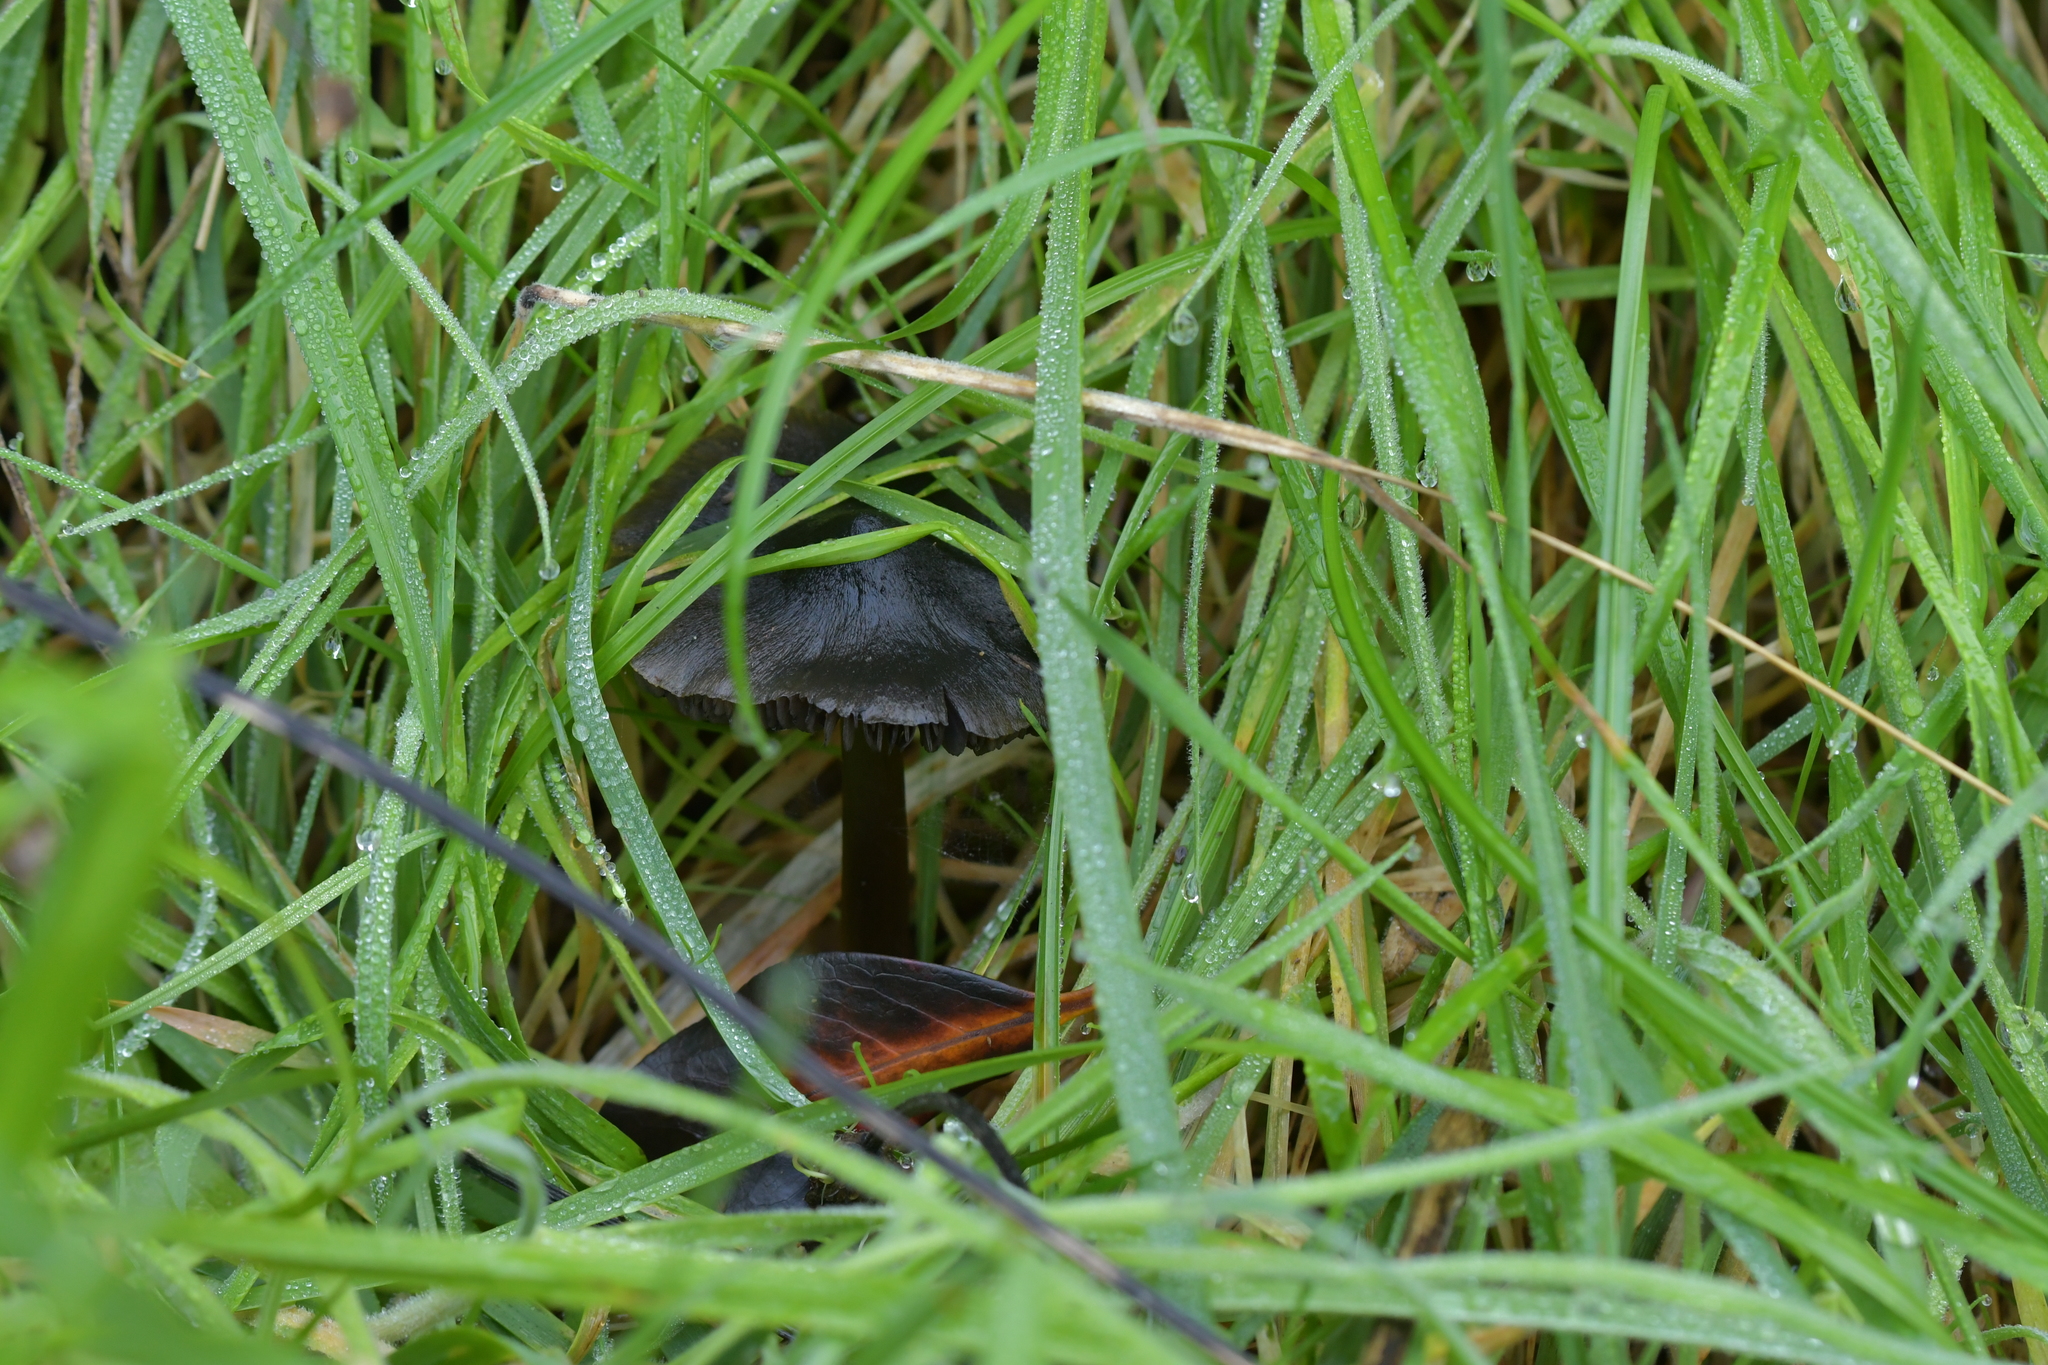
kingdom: Fungi
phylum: Basidiomycota
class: Agaricomycetes
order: Agaricales
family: Hygrophoraceae
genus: Hygrocybe
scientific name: Hygrocybe conica
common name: Blackening wax-cap
